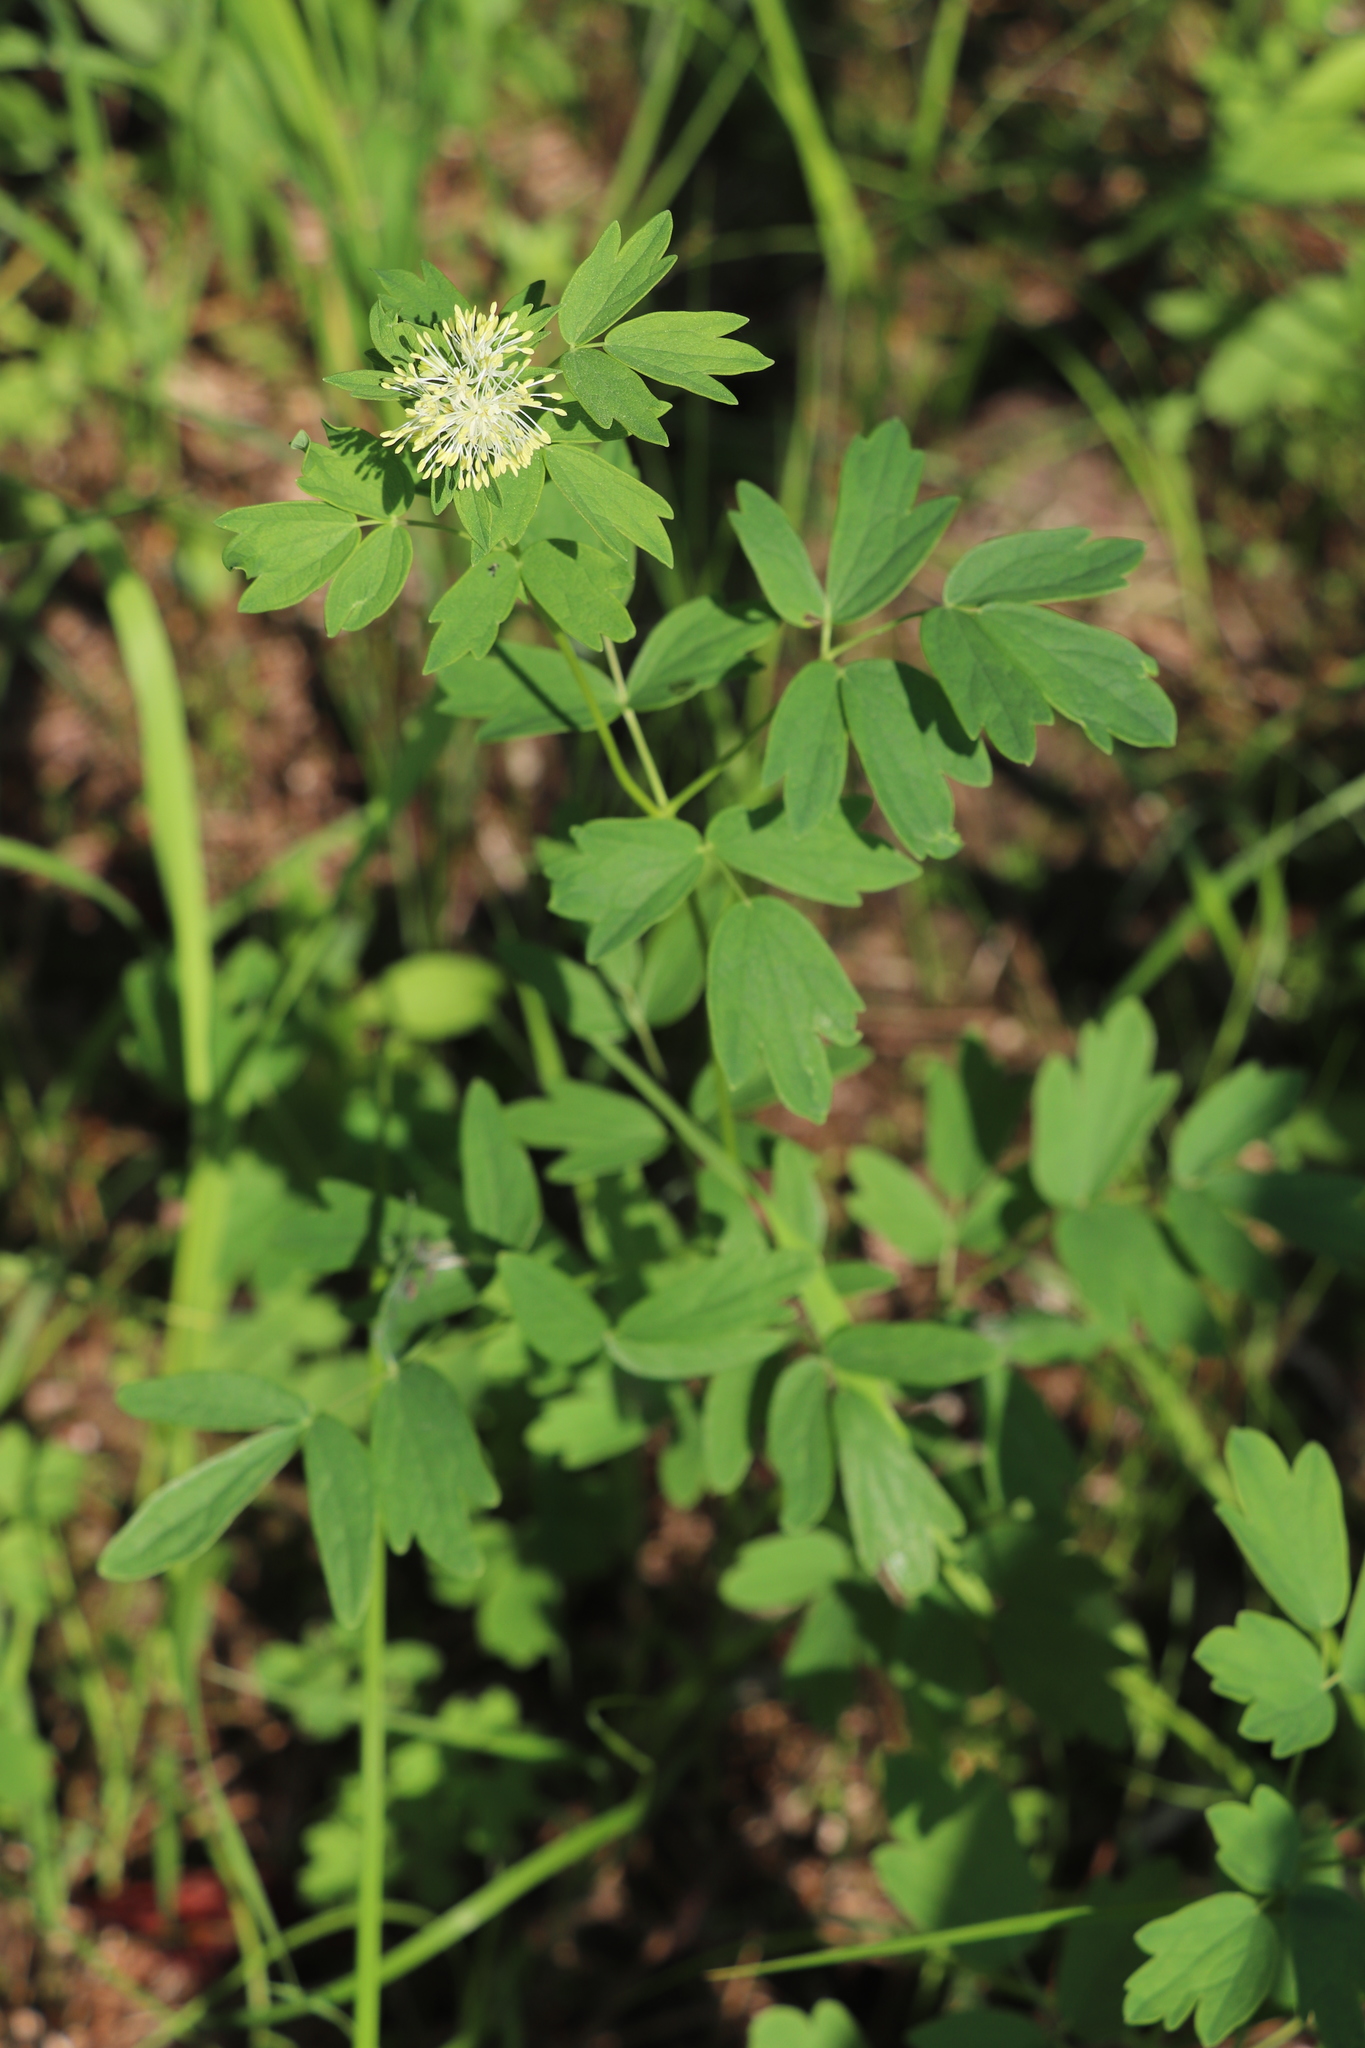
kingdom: Plantae
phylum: Tracheophyta
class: Magnoliopsida
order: Ranunculales
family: Ranunculaceae
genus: Thalictrum
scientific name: Thalictrum flavum
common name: Common meadow-rue
